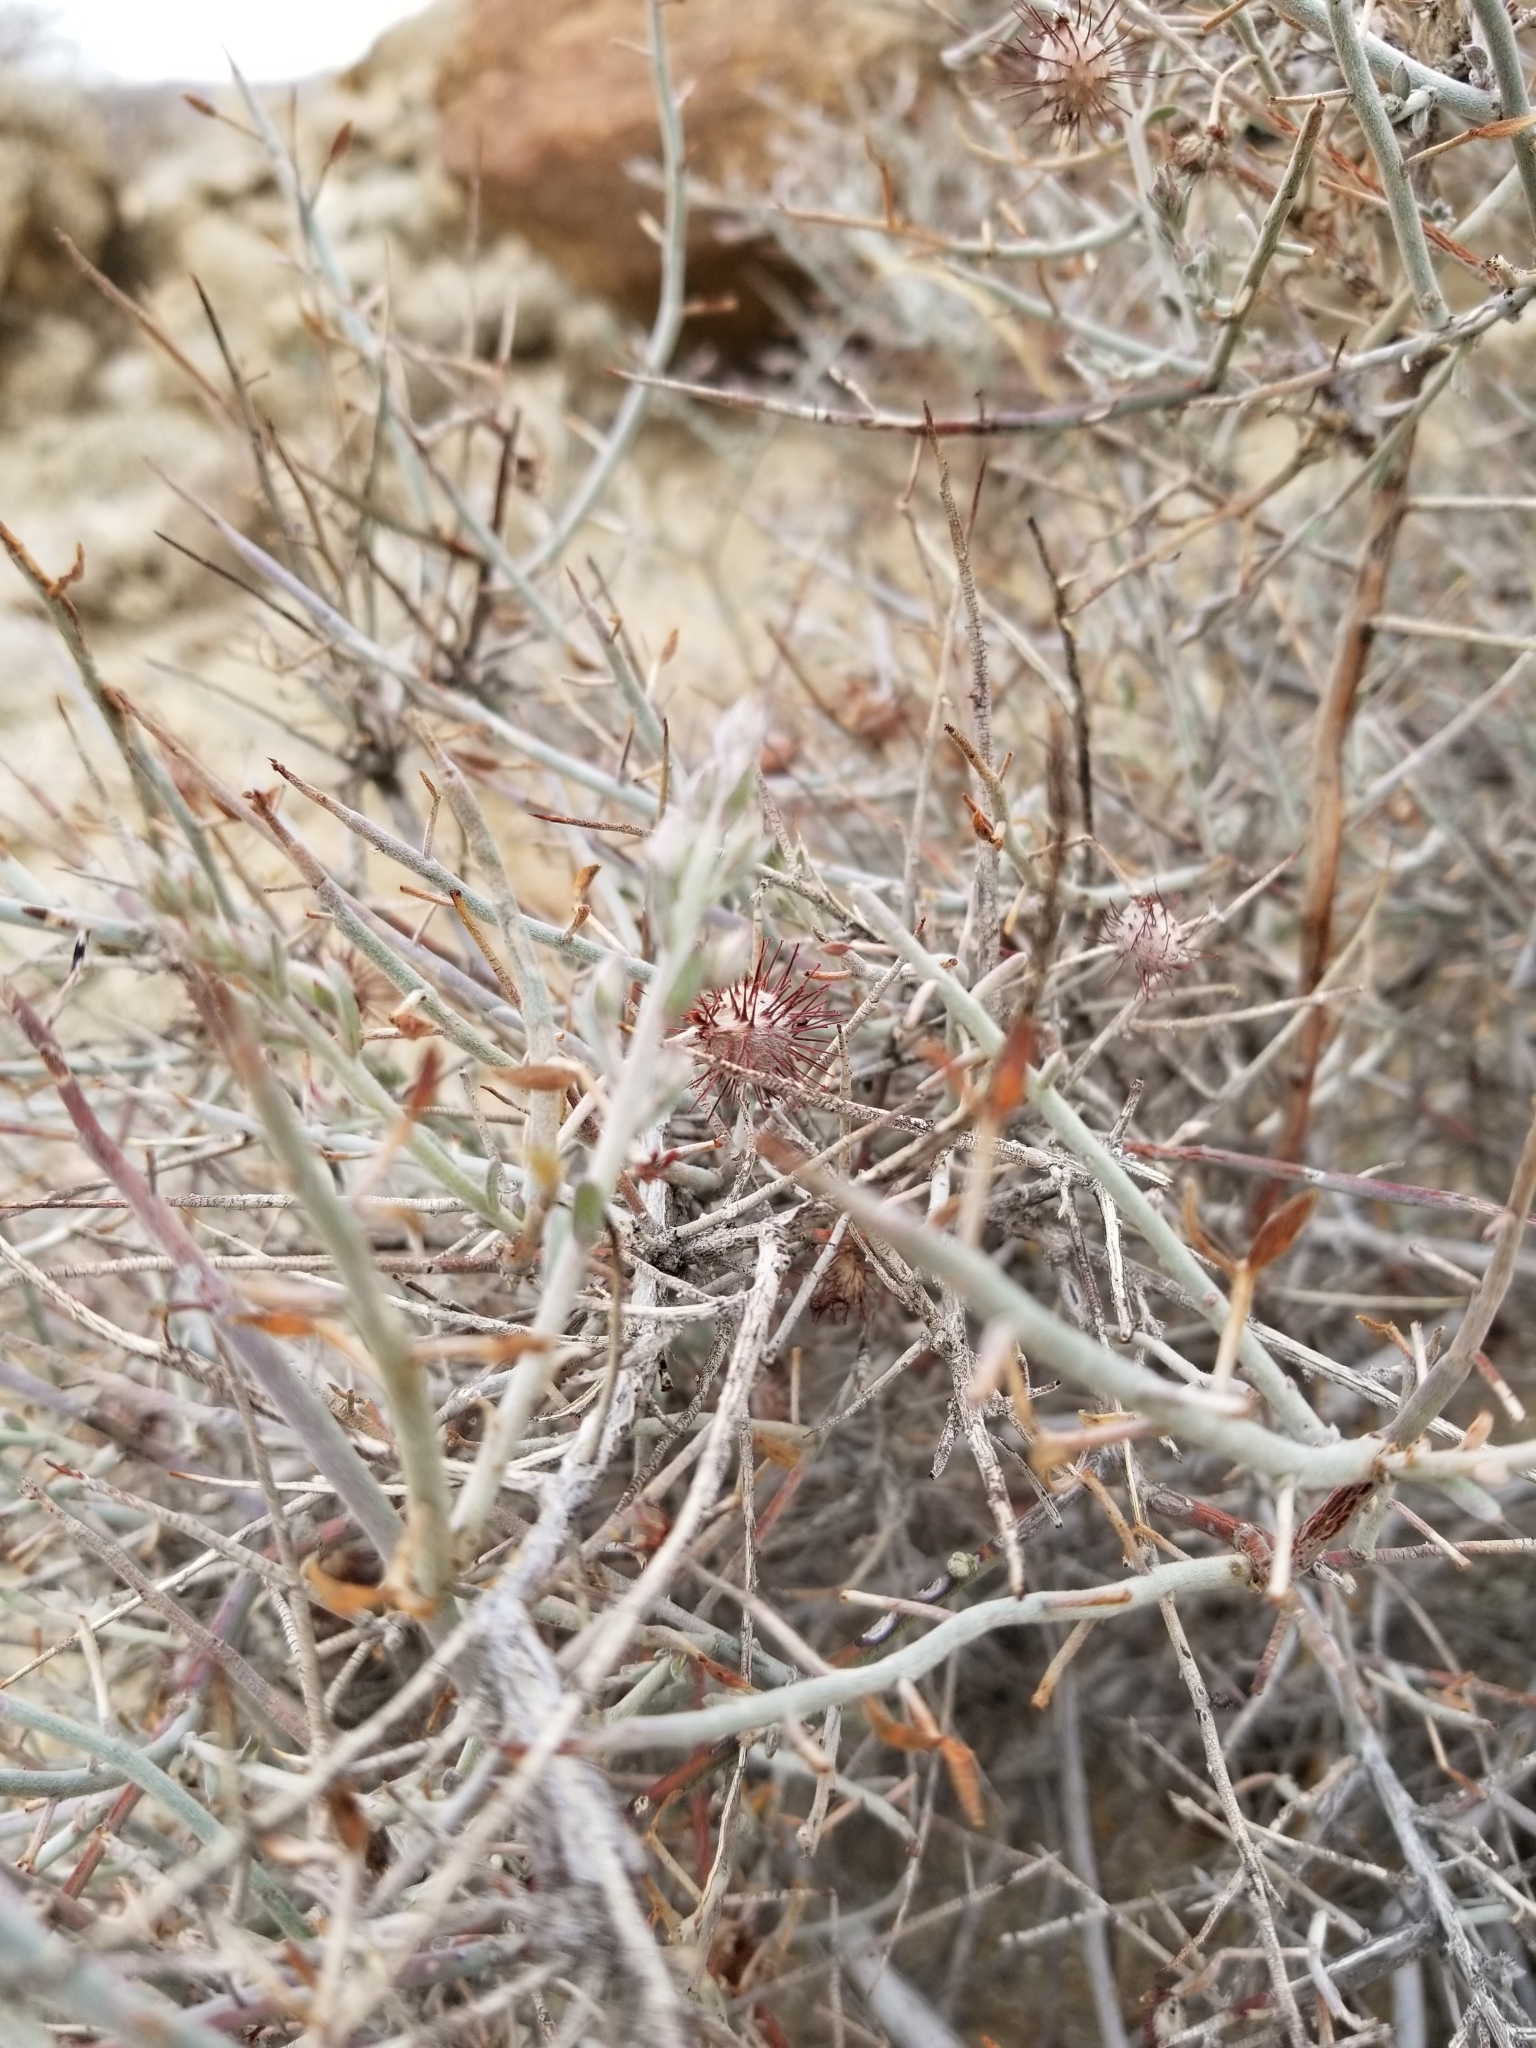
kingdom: Plantae
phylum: Tracheophyta
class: Magnoliopsida
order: Zygophyllales
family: Krameriaceae
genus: Krameria
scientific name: Krameria bicolor
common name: White ratany
